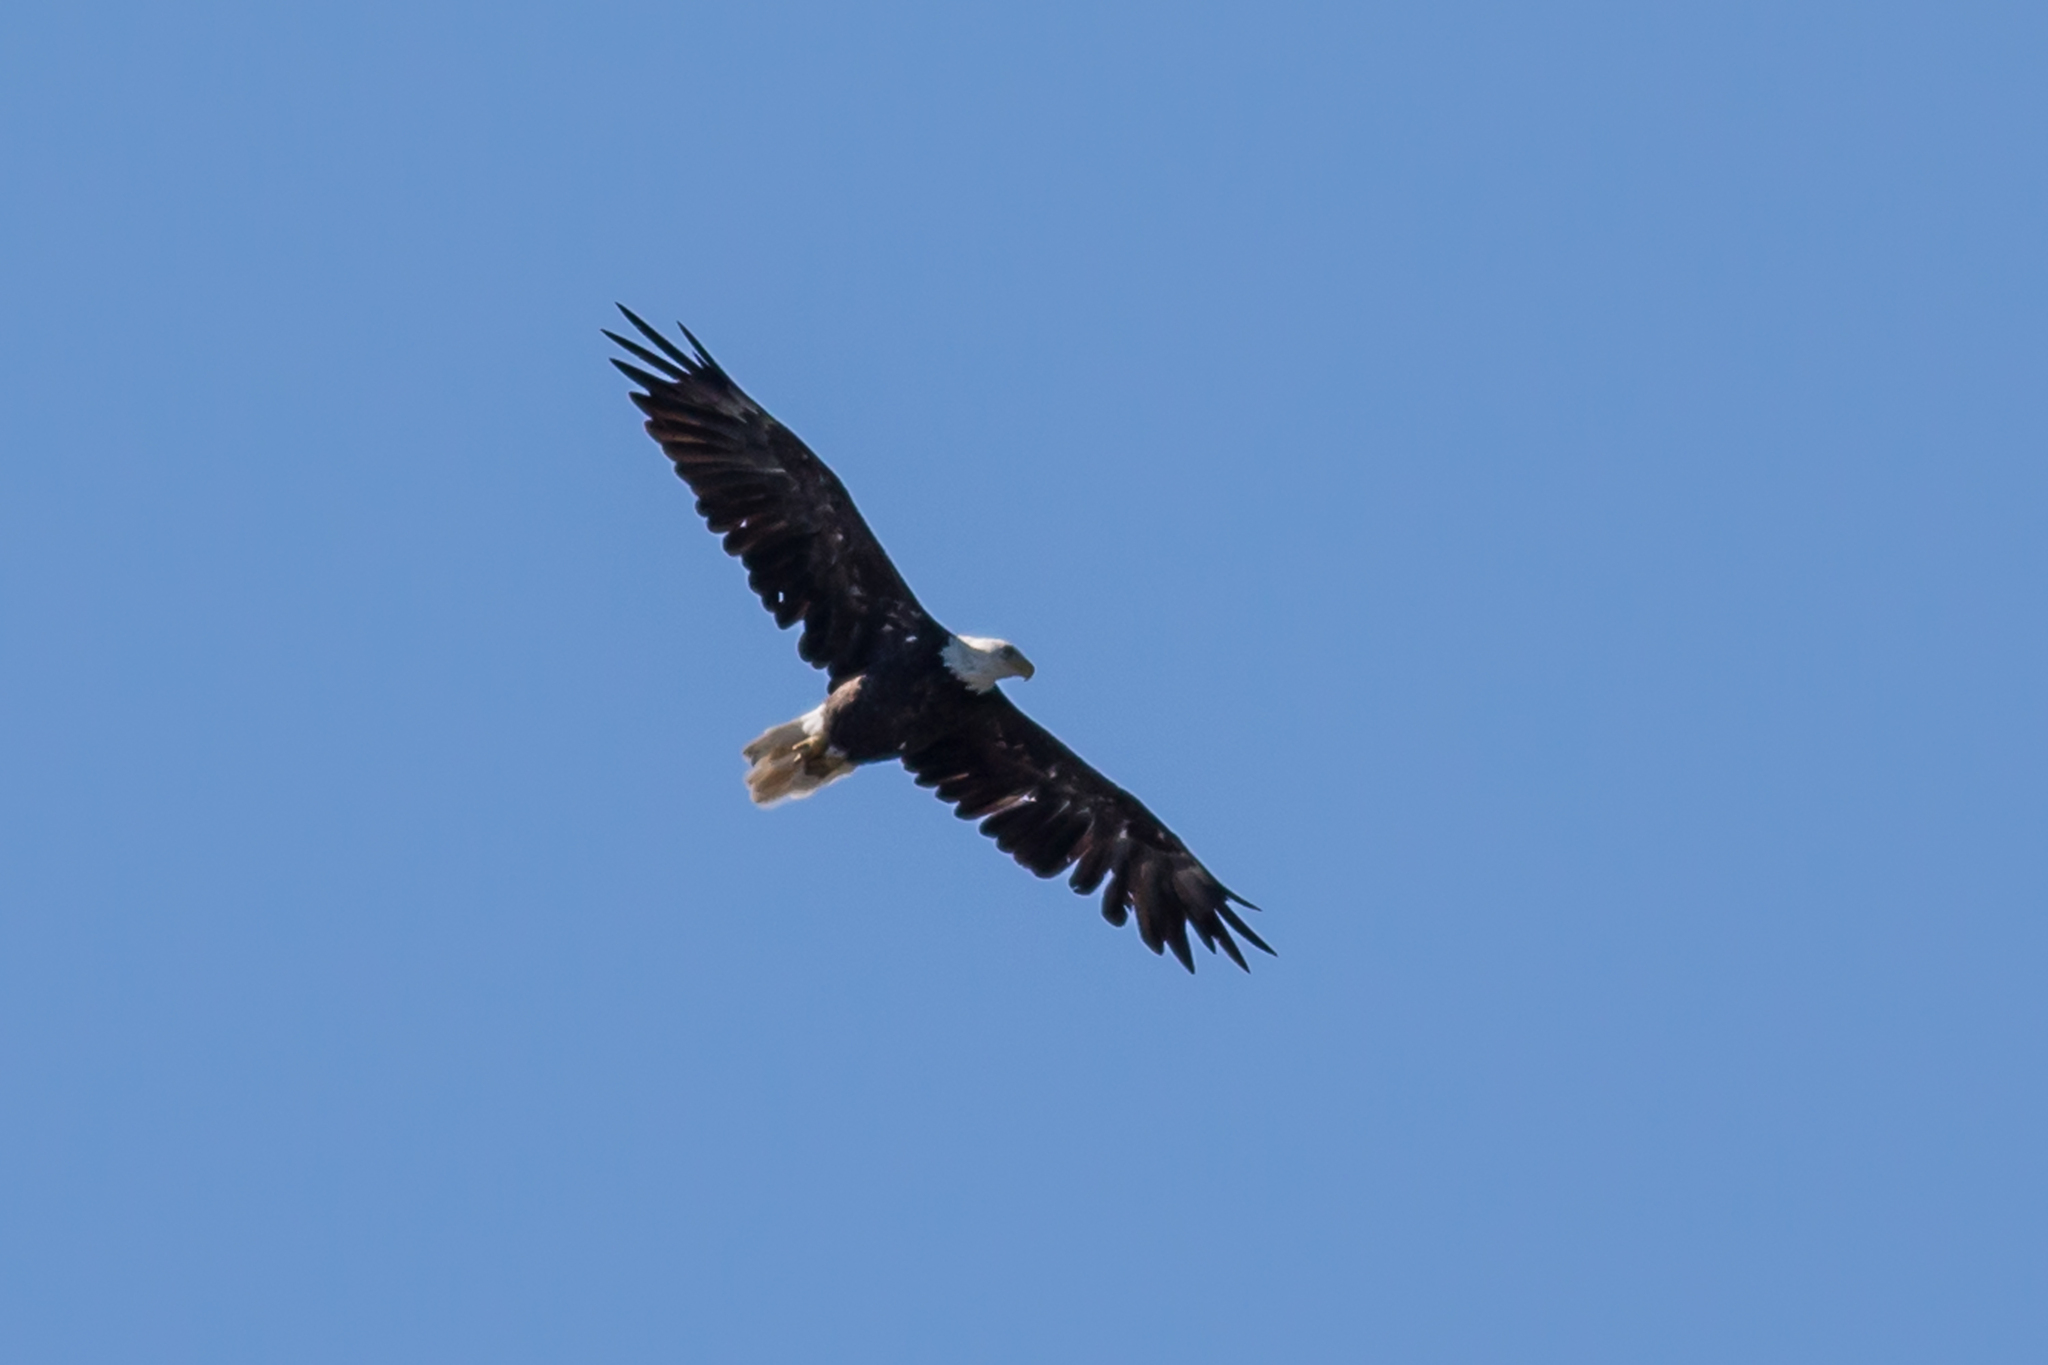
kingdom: Animalia
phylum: Chordata
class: Aves
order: Accipitriformes
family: Accipitridae
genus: Haliaeetus
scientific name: Haliaeetus leucocephalus
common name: Bald eagle
